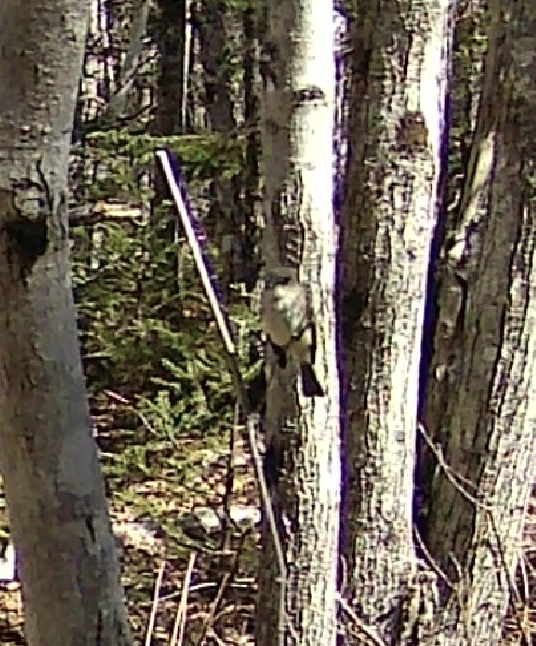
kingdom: Animalia
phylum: Chordata
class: Aves
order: Passeriformes
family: Tyrannidae
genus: Sayornis
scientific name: Sayornis phoebe
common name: Eastern phoebe
